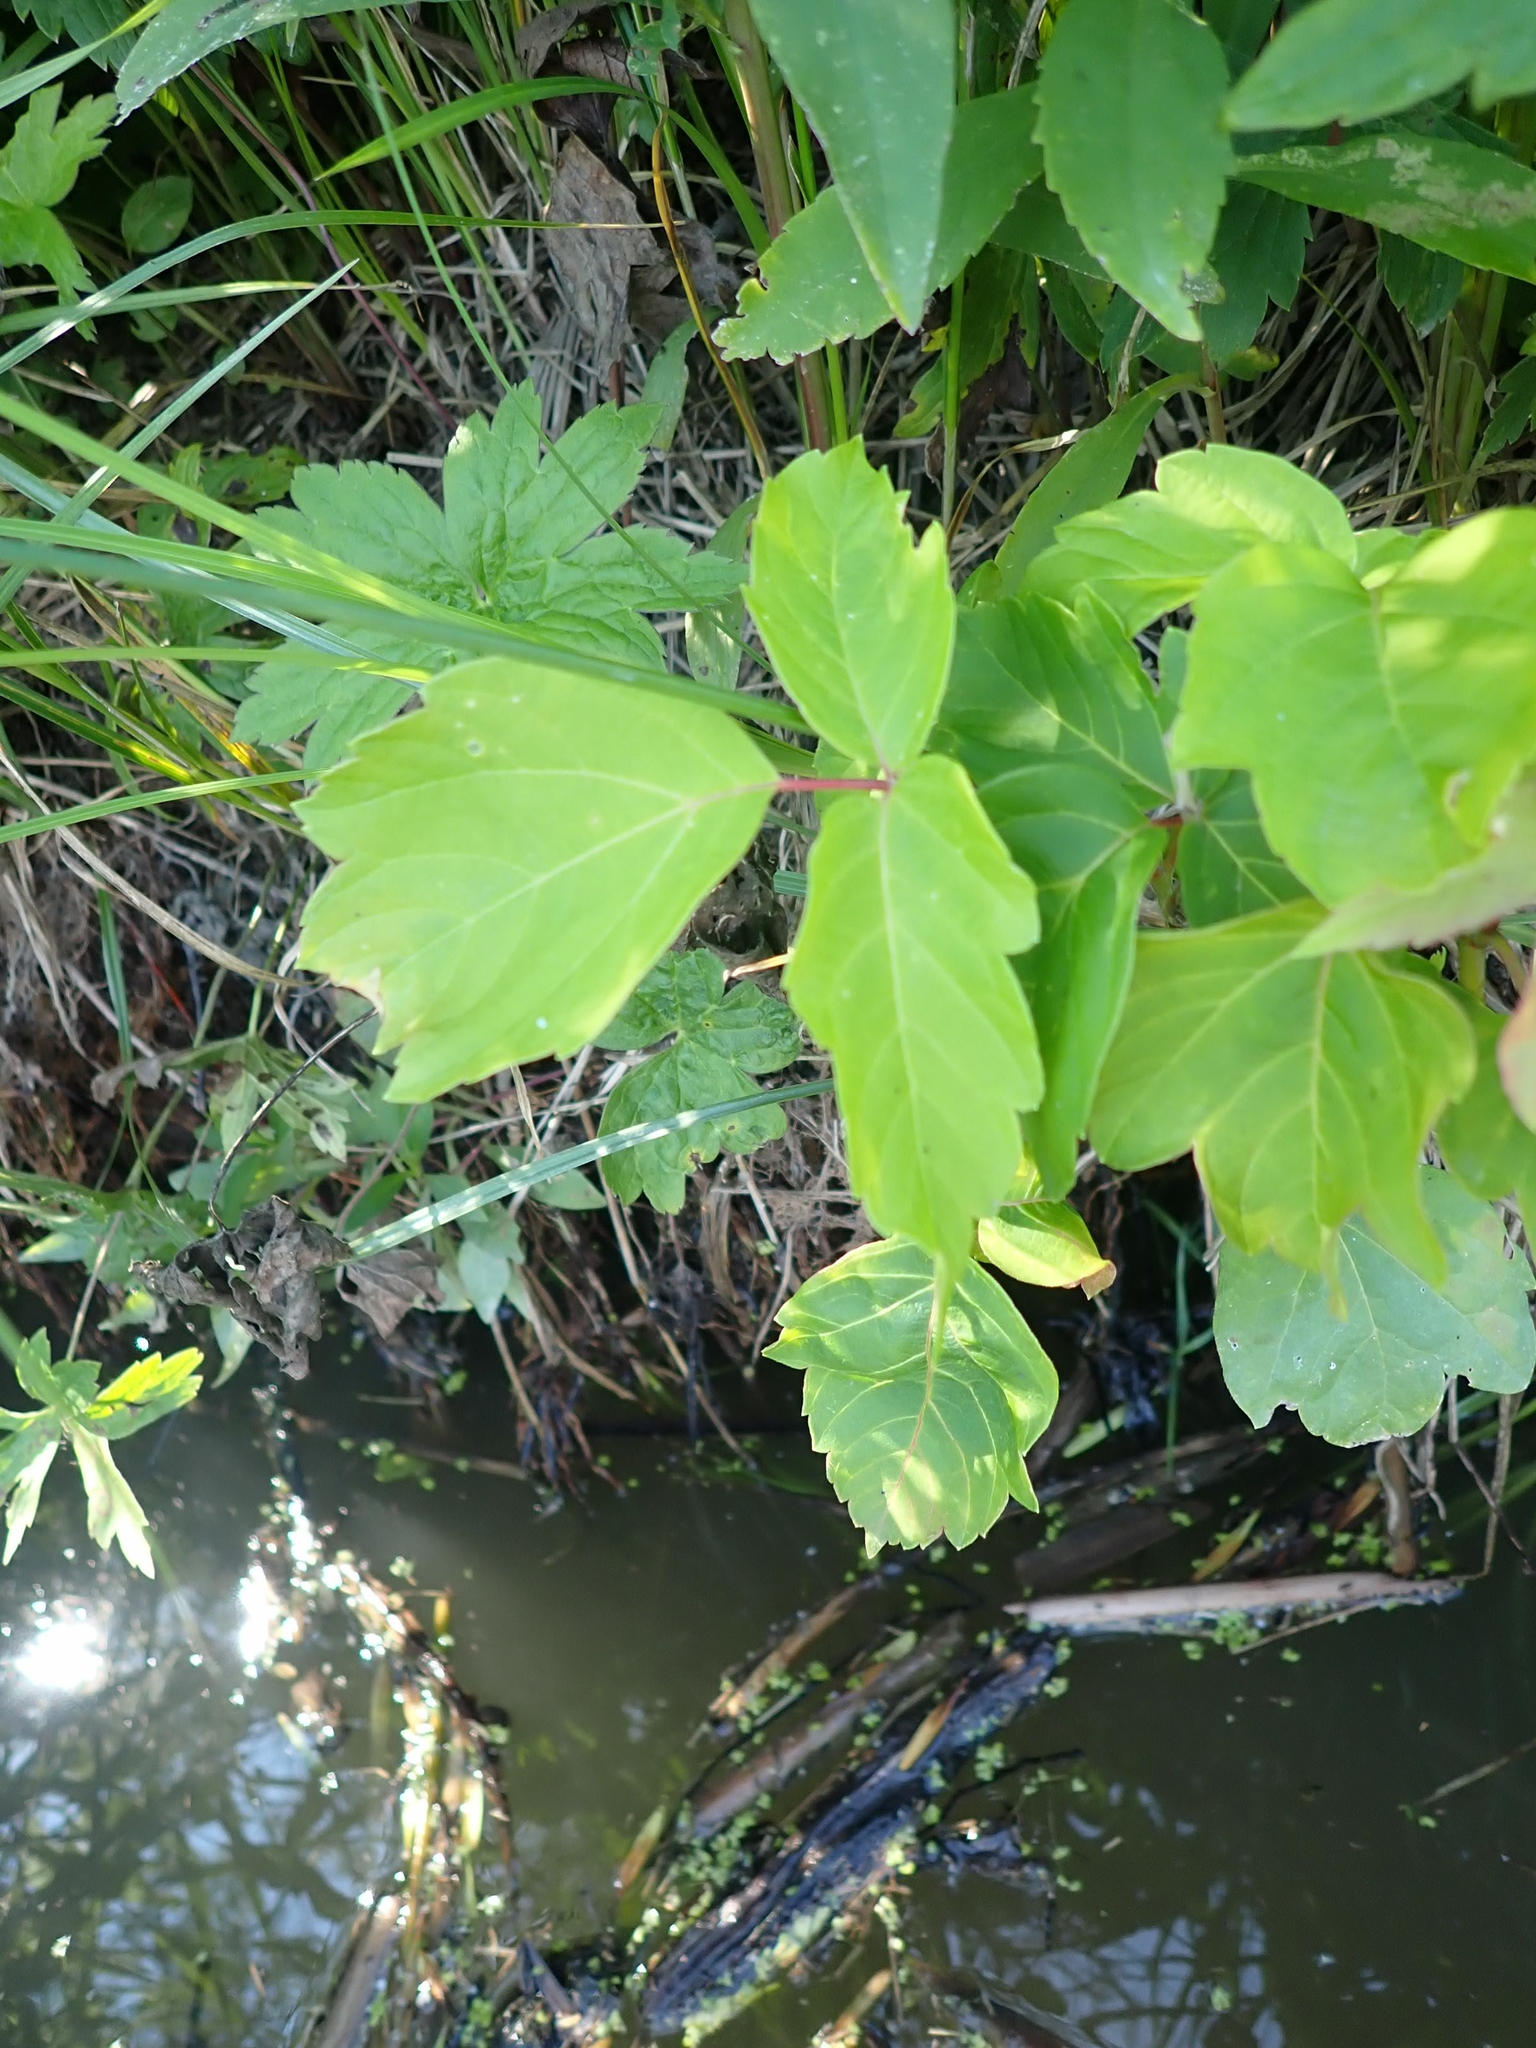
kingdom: Plantae
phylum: Tracheophyta
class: Magnoliopsida
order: Sapindales
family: Sapindaceae
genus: Acer
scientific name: Acer negundo
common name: Ashleaf maple
